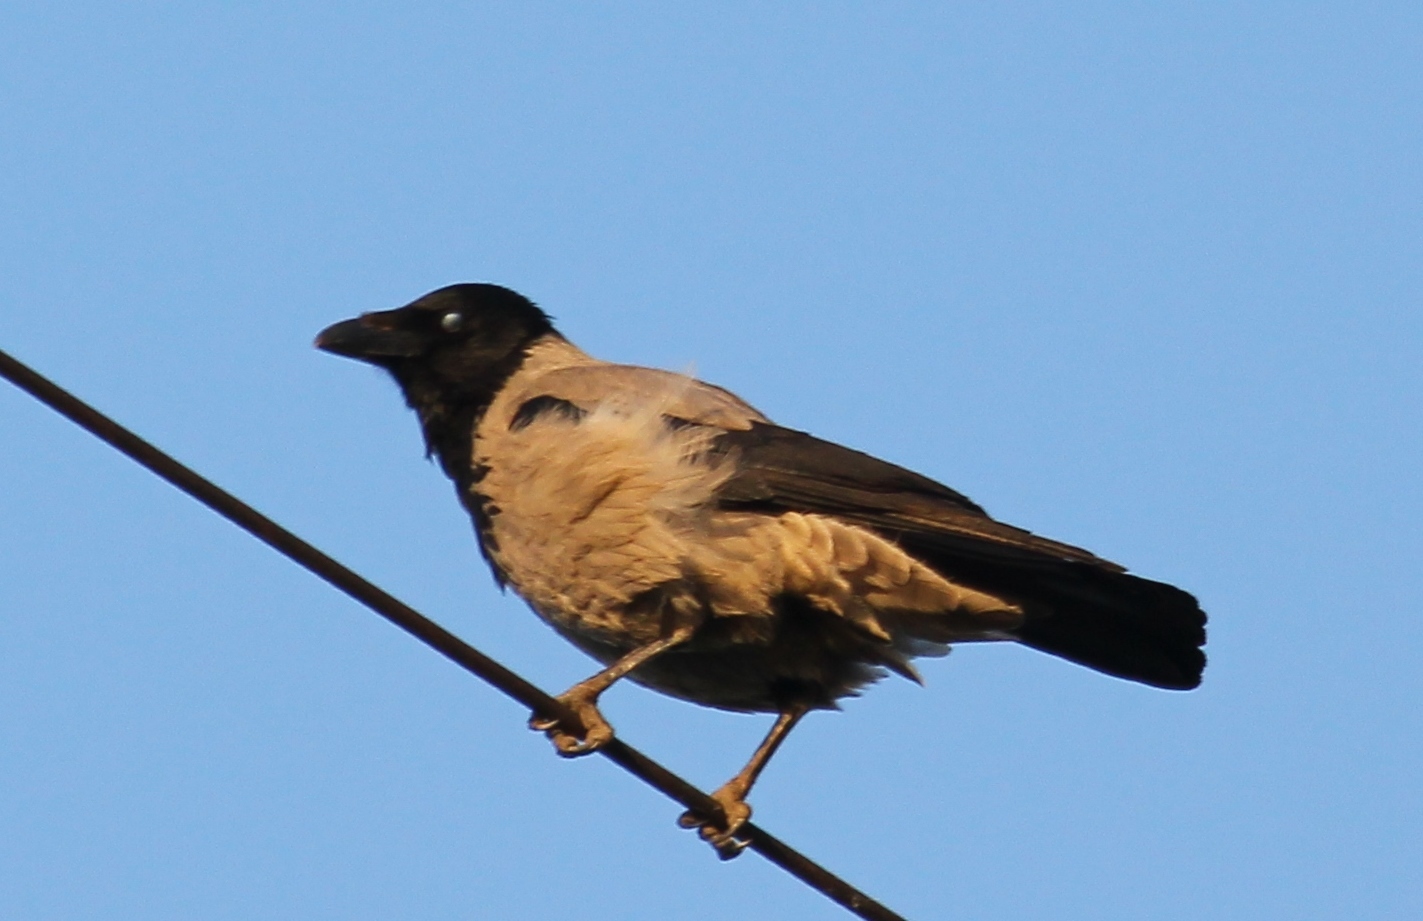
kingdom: Animalia
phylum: Chordata
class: Aves
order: Passeriformes
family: Corvidae
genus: Corvus
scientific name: Corvus cornix
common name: Hooded crow
